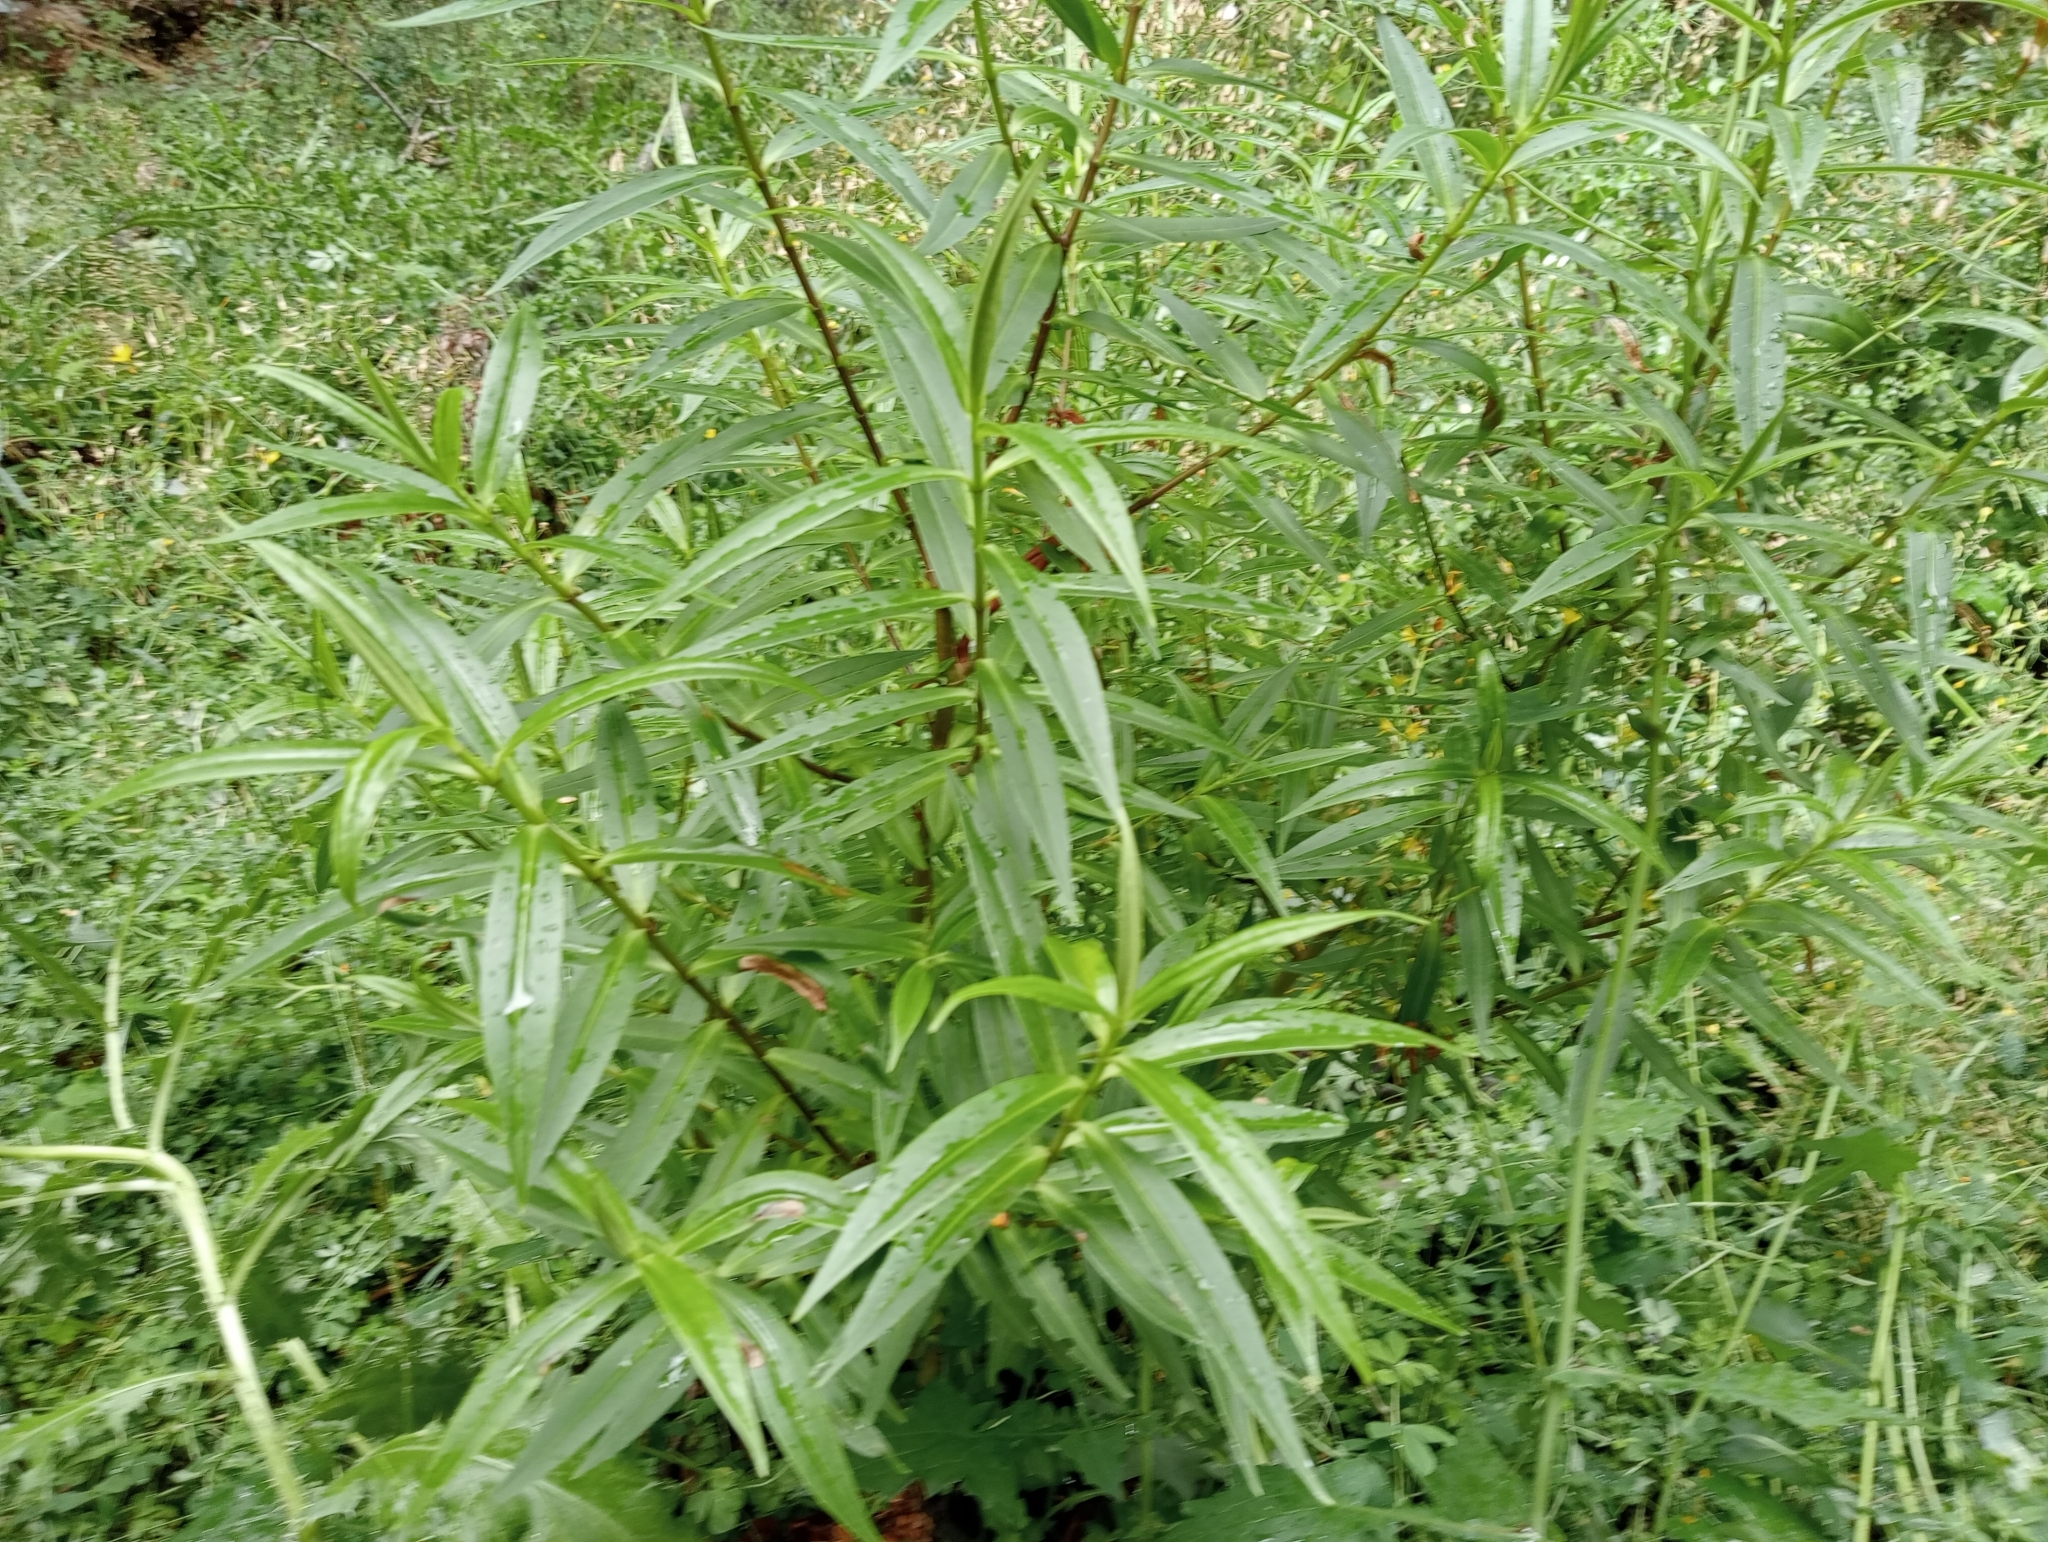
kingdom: Plantae
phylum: Tracheophyta
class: Magnoliopsida
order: Lamiales
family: Plantaginaceae
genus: Veronica
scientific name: Veronica salicifolia
